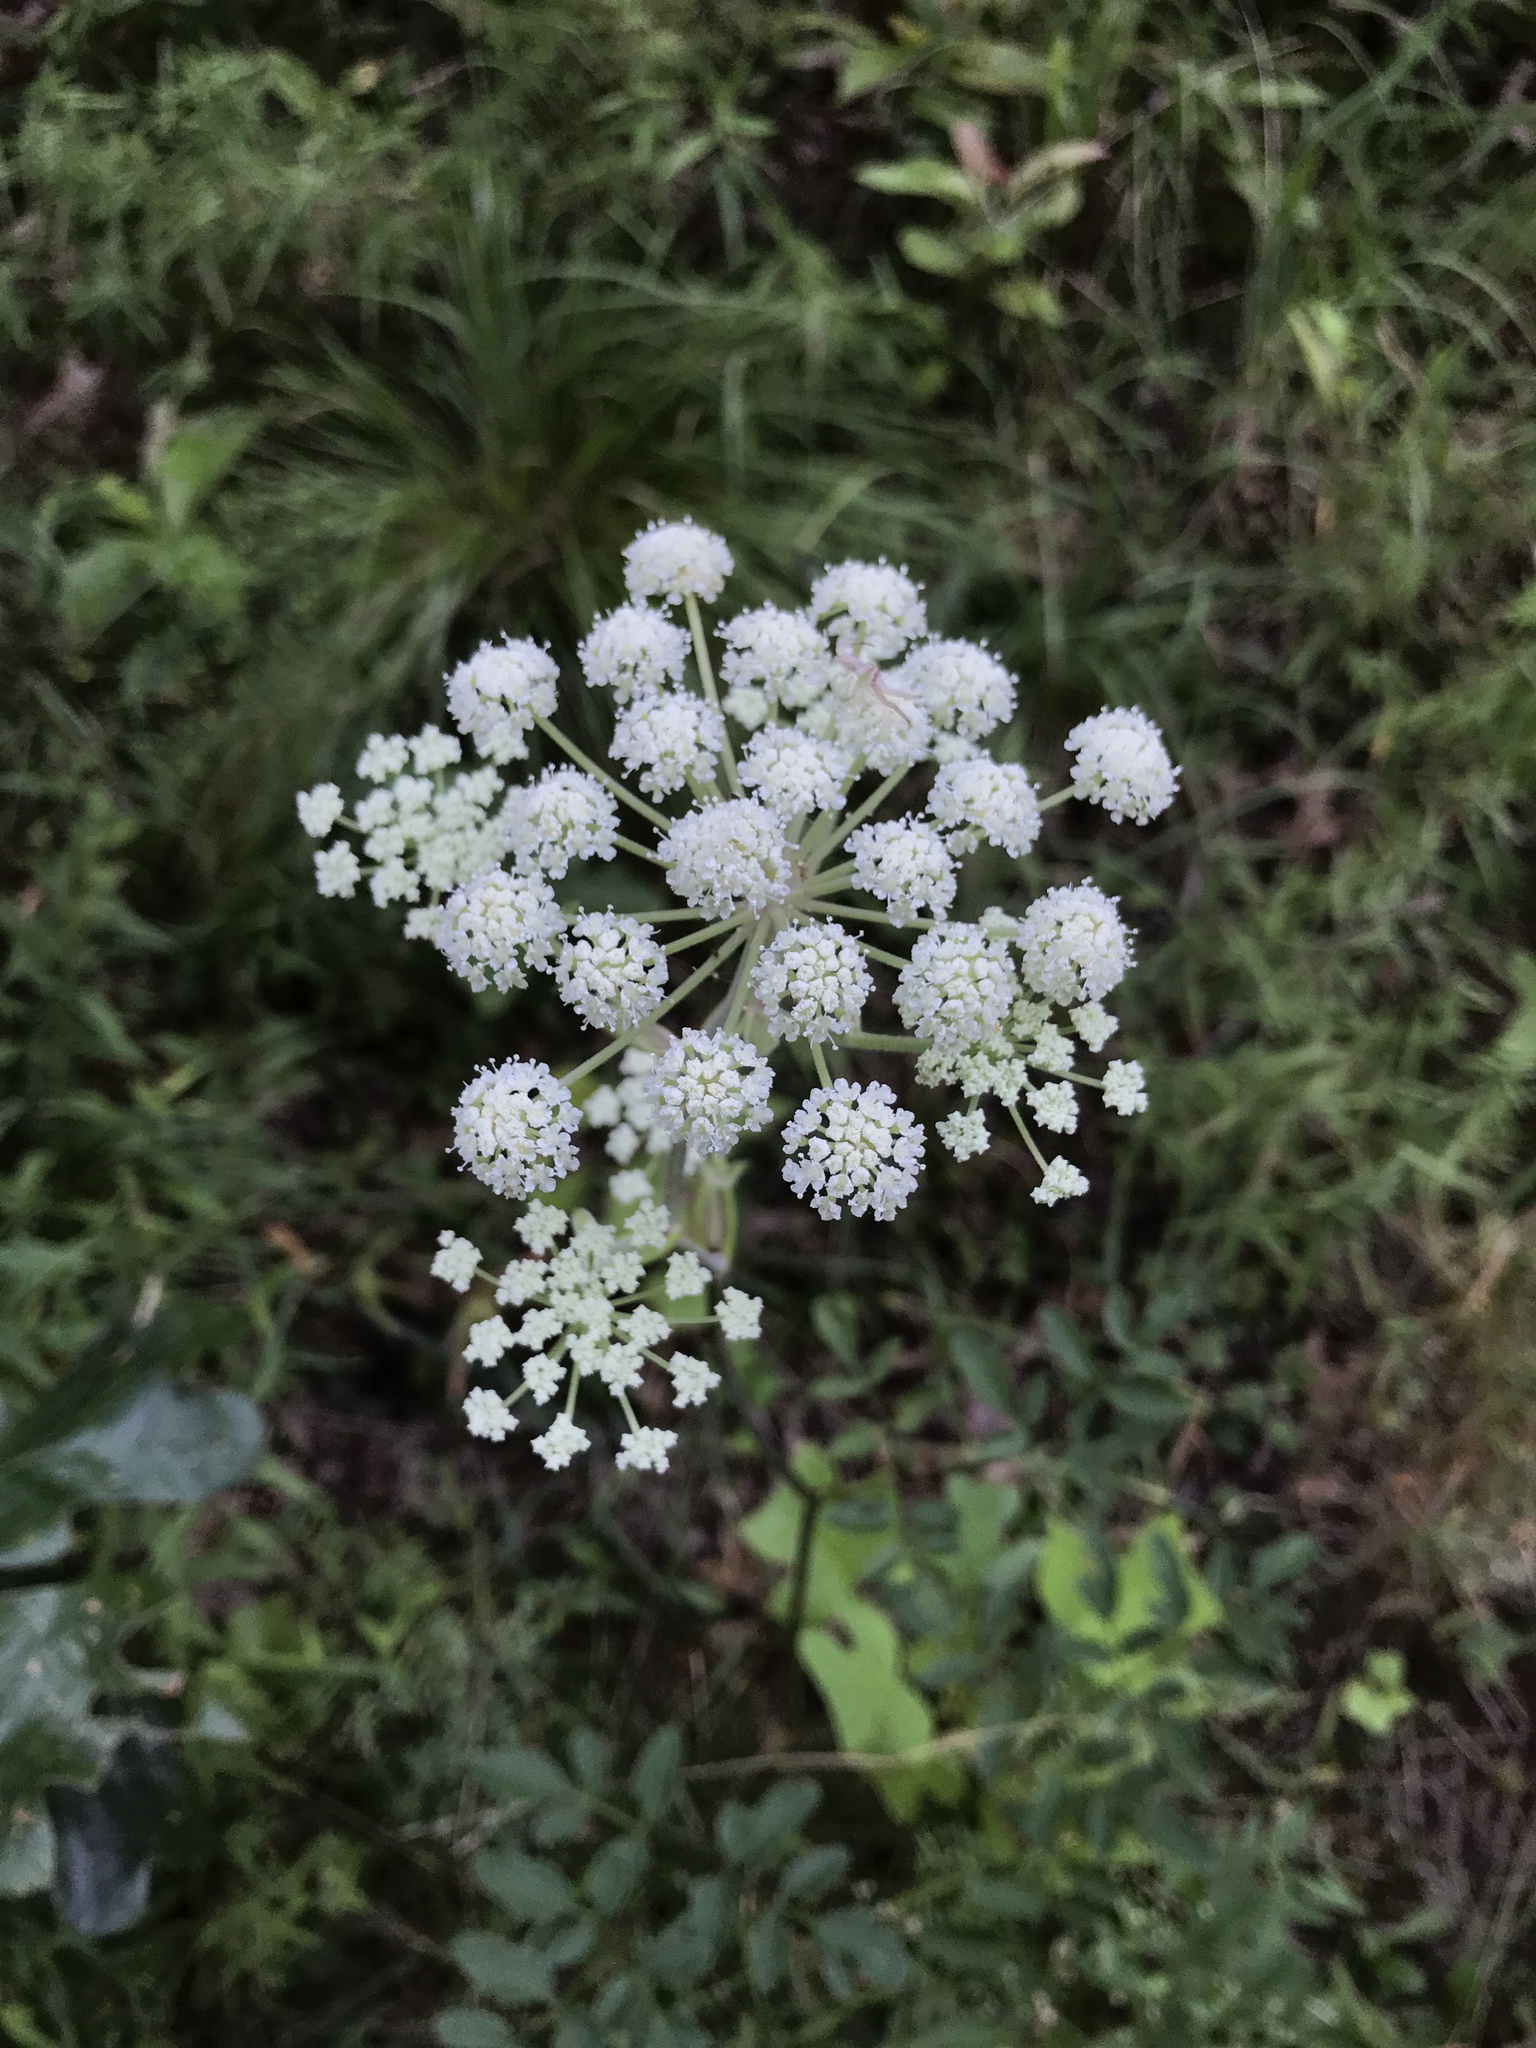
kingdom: Plantae
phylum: Tracheophyta
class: Magnoliopsida
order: Apiales
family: Apiaceae
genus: Angelica
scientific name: Angelica venenosa
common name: Hairy angelica
